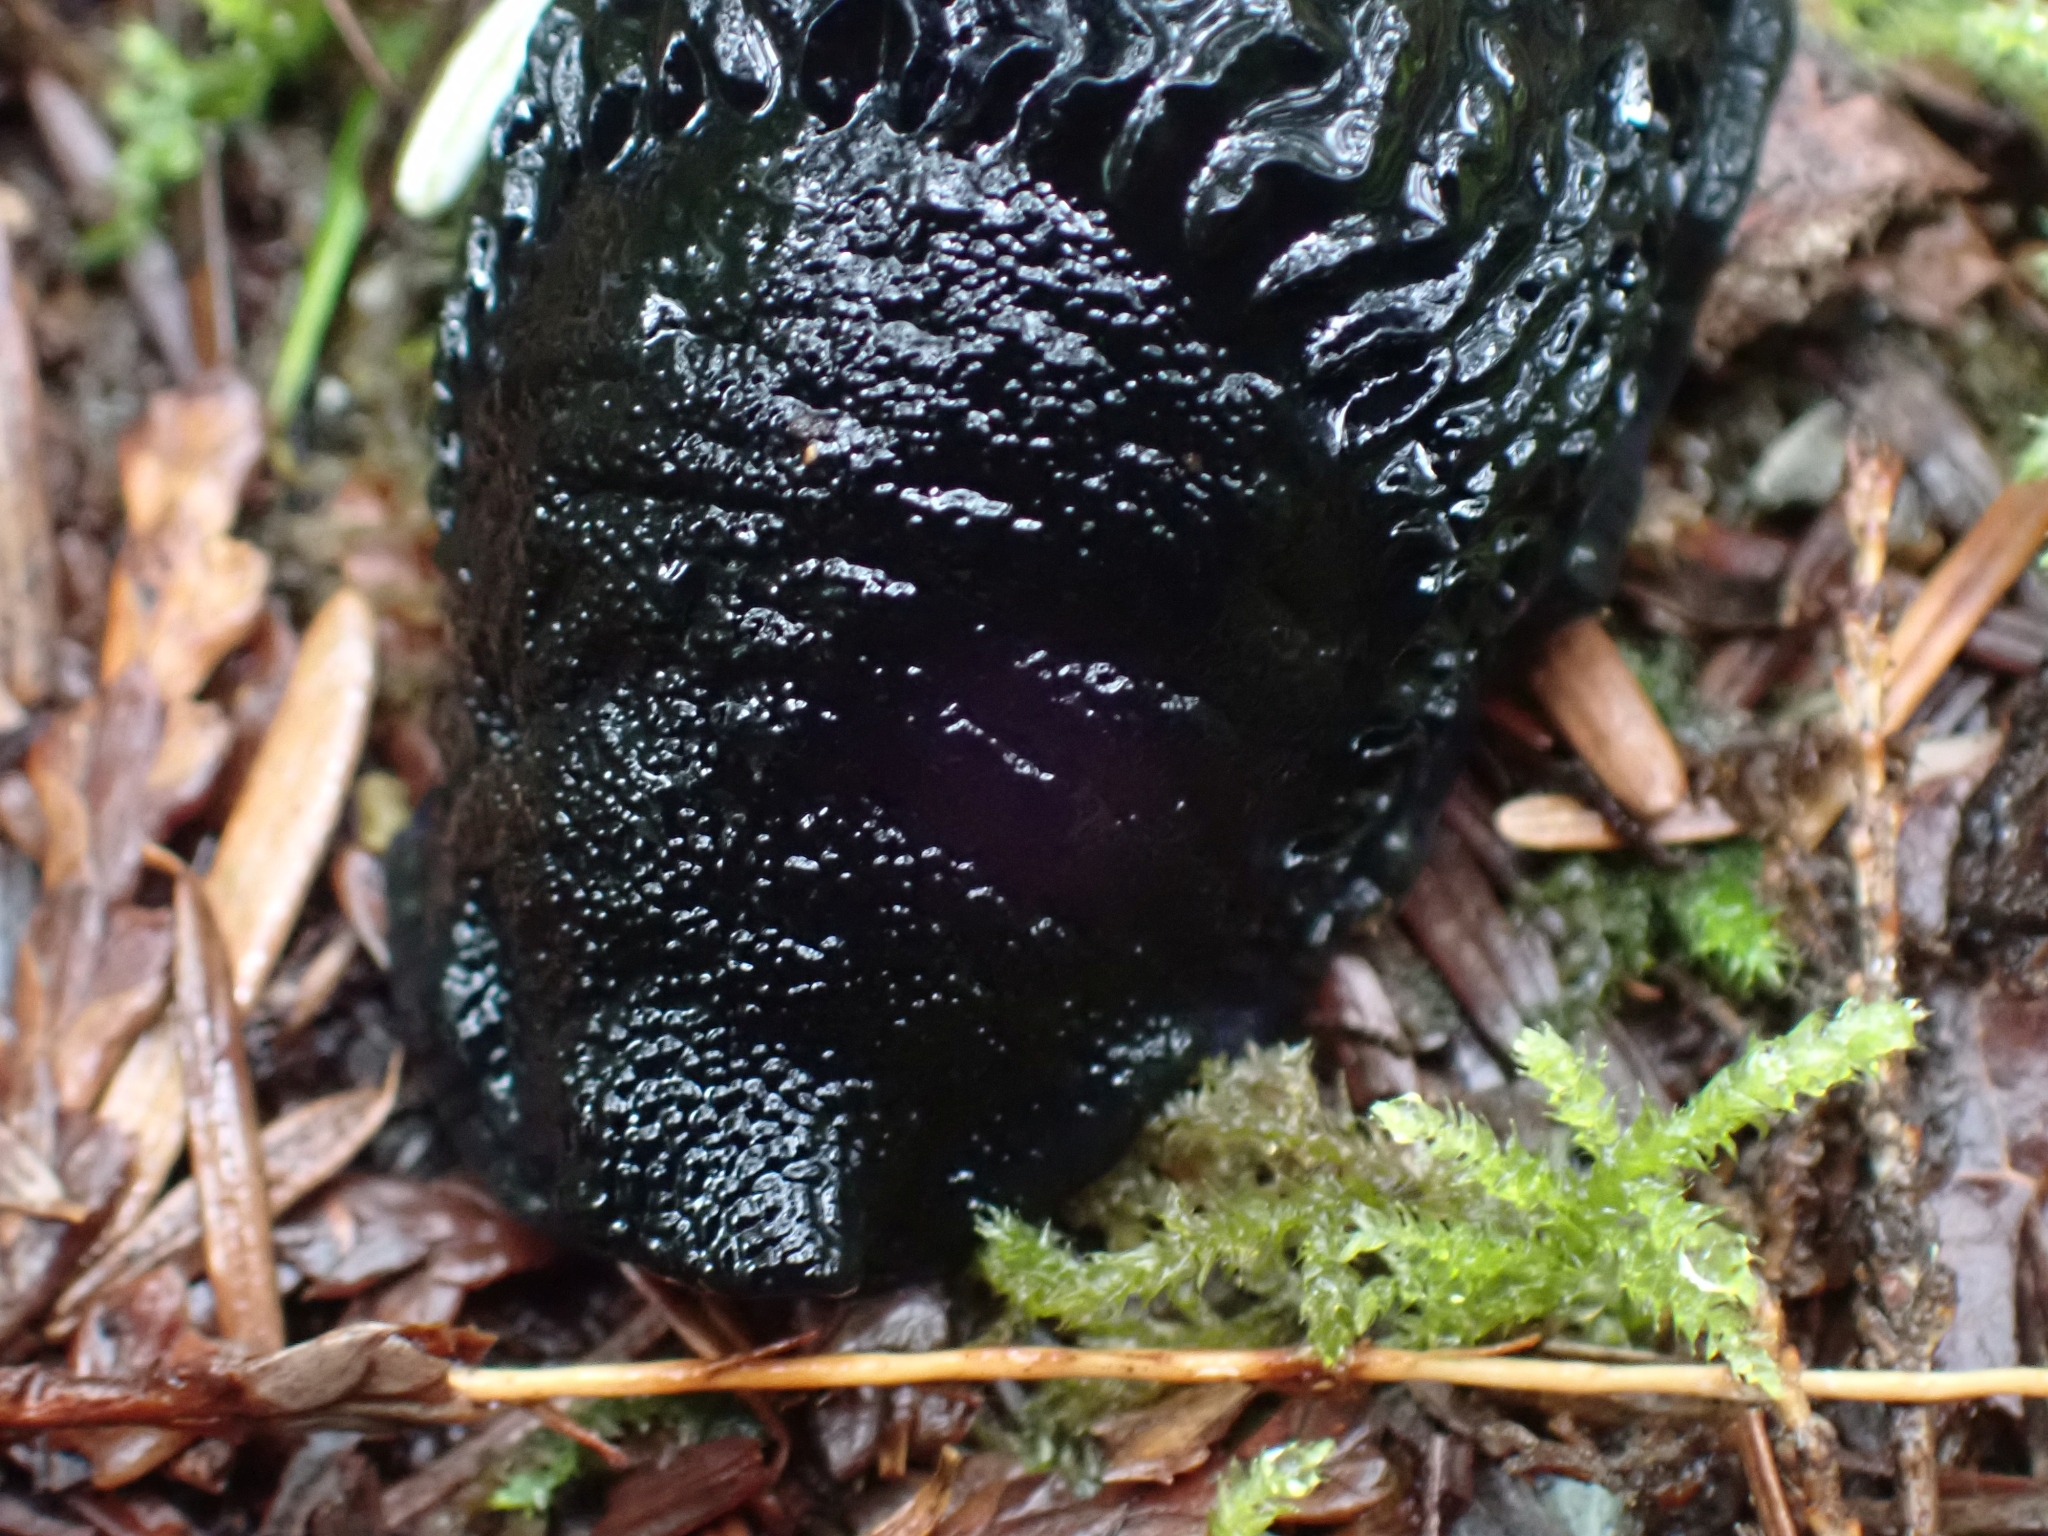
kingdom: Animalia
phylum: Mollusca
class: Gastropoda
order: Stylommatophora
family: Arionidae
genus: Arion
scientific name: Arion
